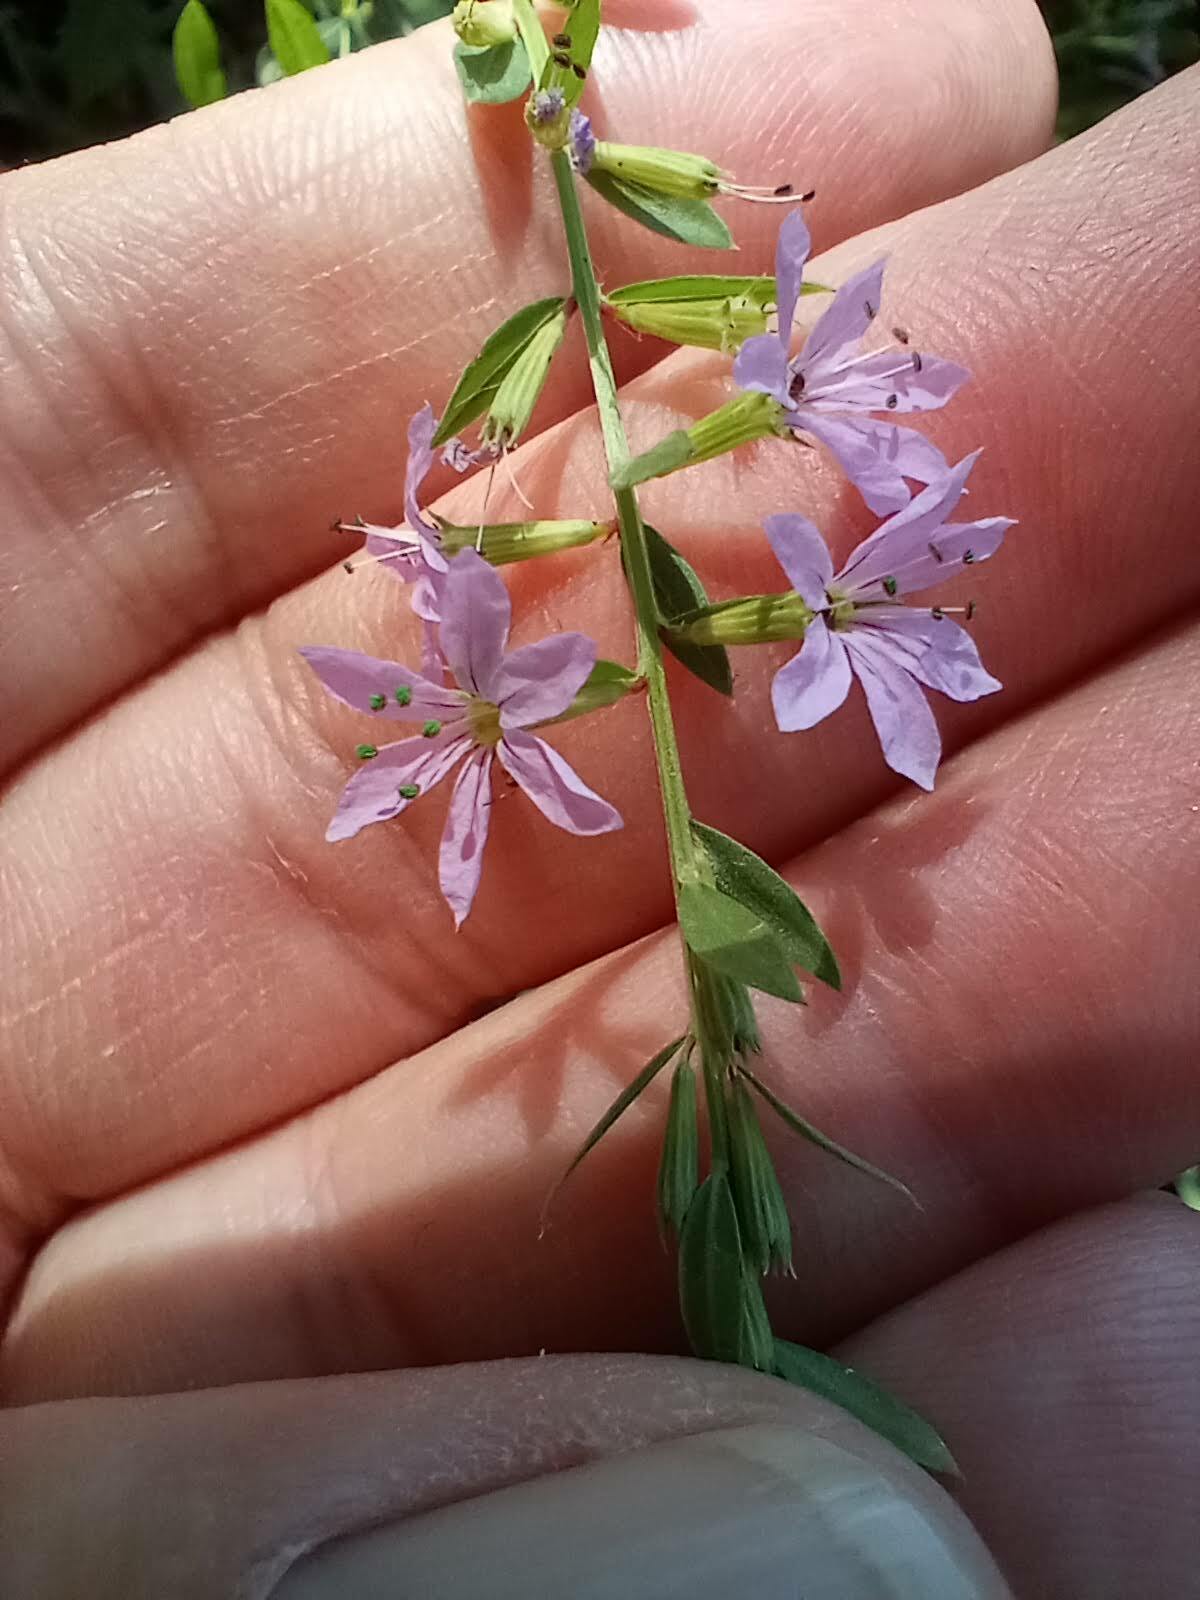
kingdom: Plantae
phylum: Tracheophyta
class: Magnoliopsida
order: Myrtales
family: Lythraceae
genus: Lythrum
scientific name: Lythrum alatum
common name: Winged loosestrife
